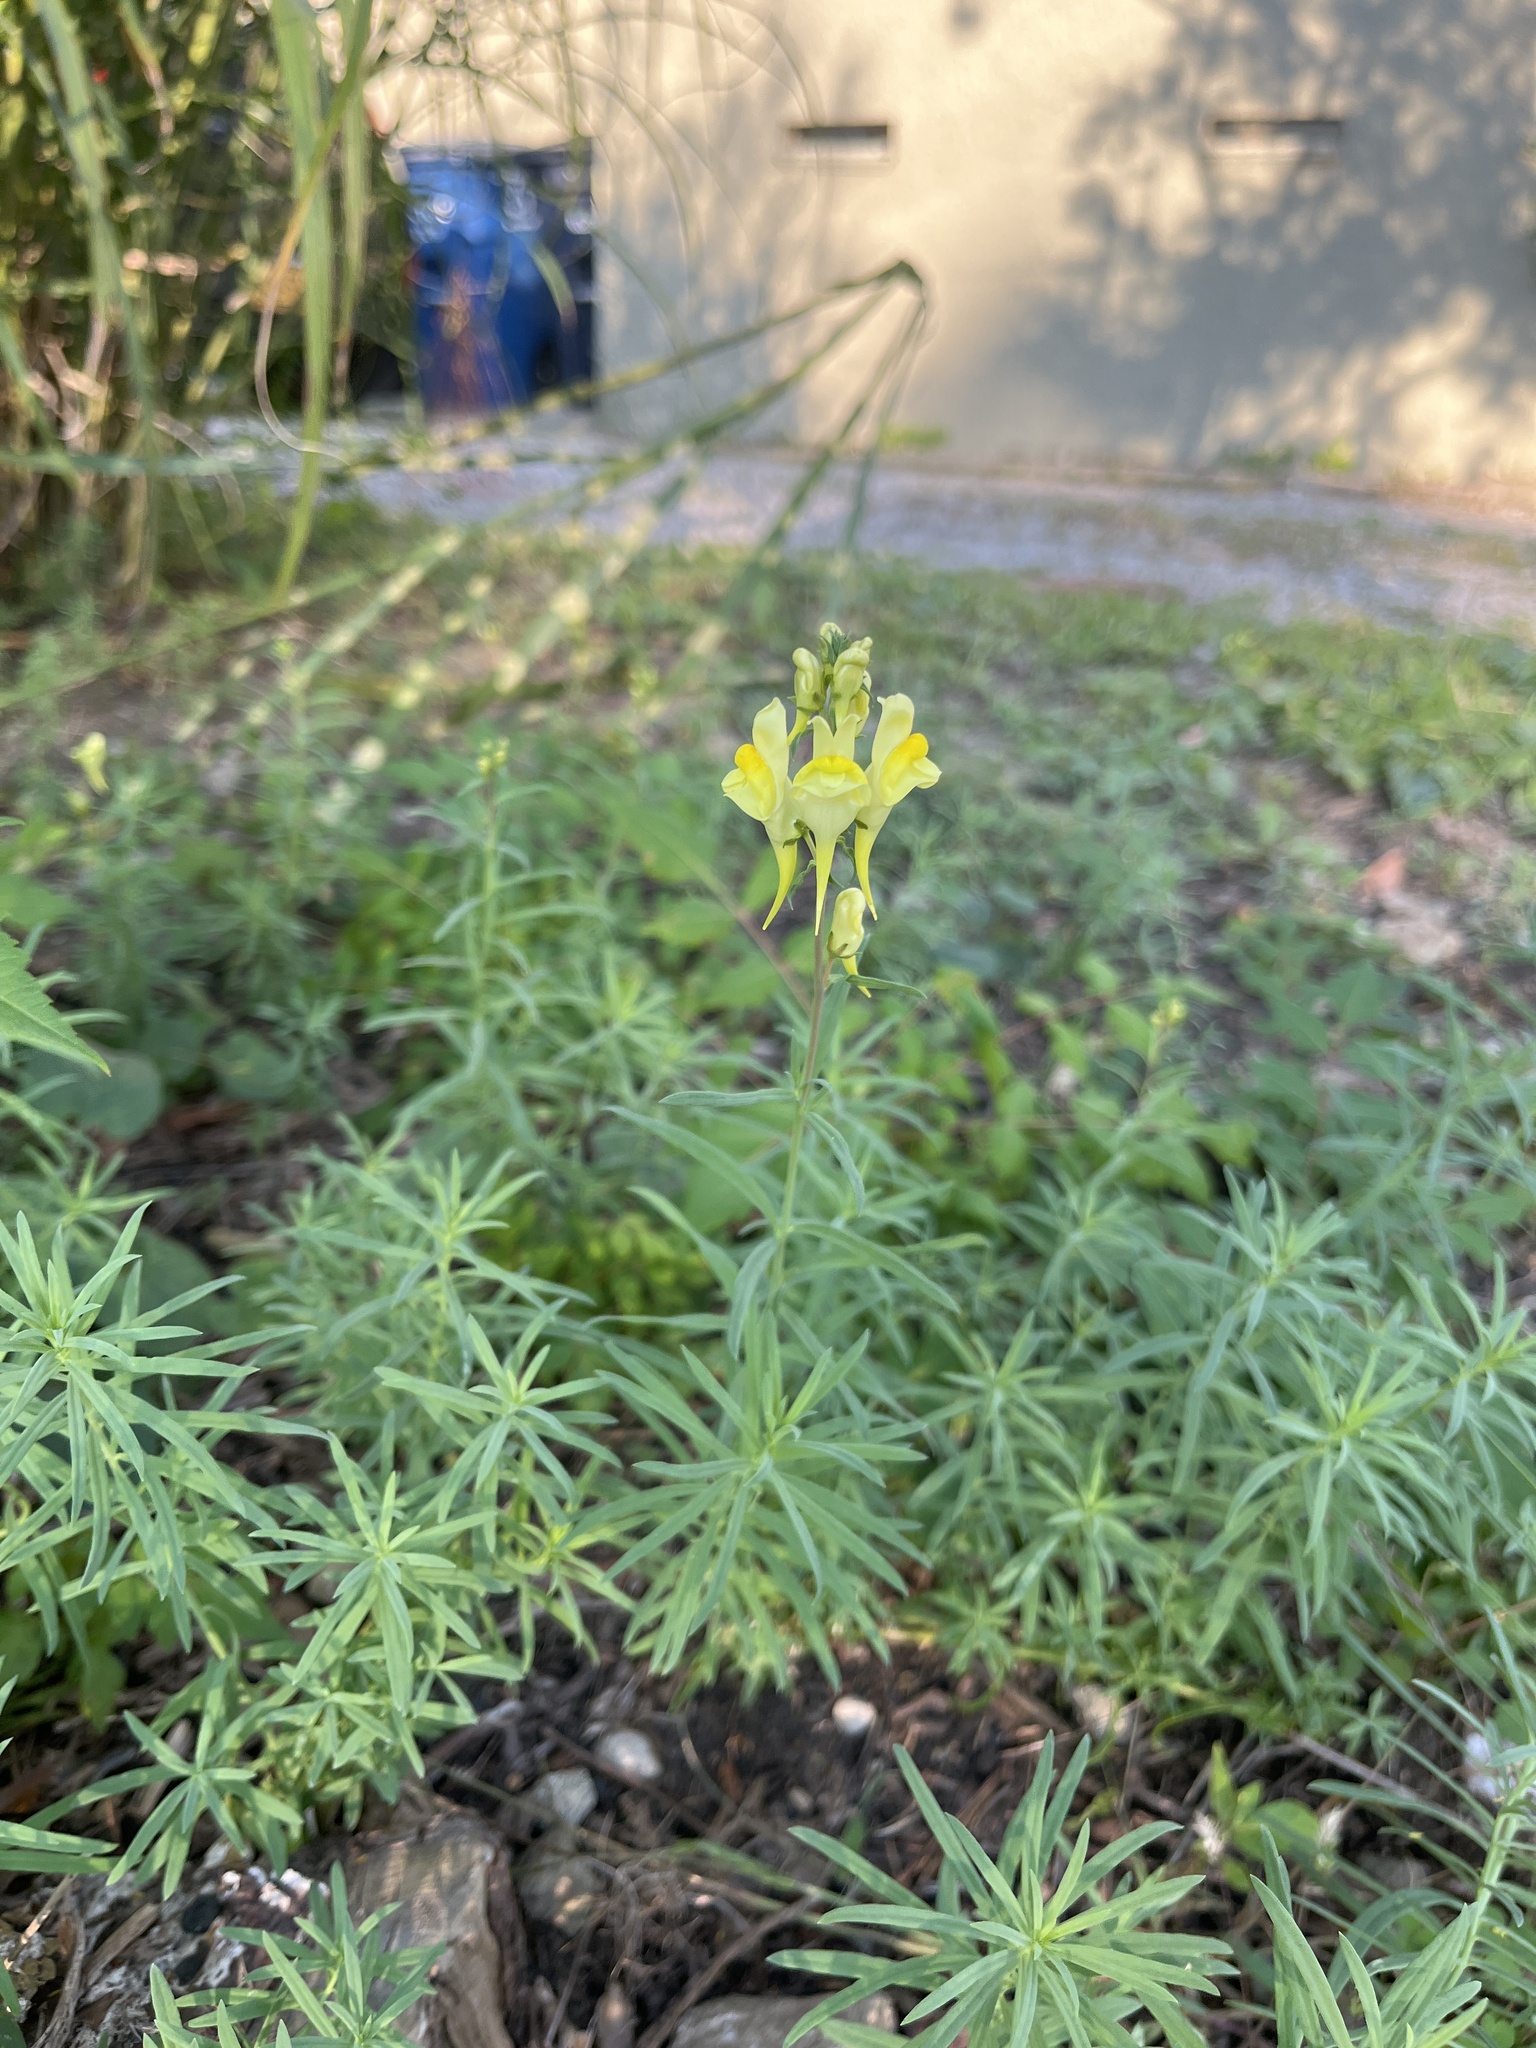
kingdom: Plantae
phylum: Tracheophyta
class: Magnoliopsida
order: Lamiales
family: Plantaginaceae
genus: Linaria
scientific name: Linaria vulgaris
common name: Butter and eggs
